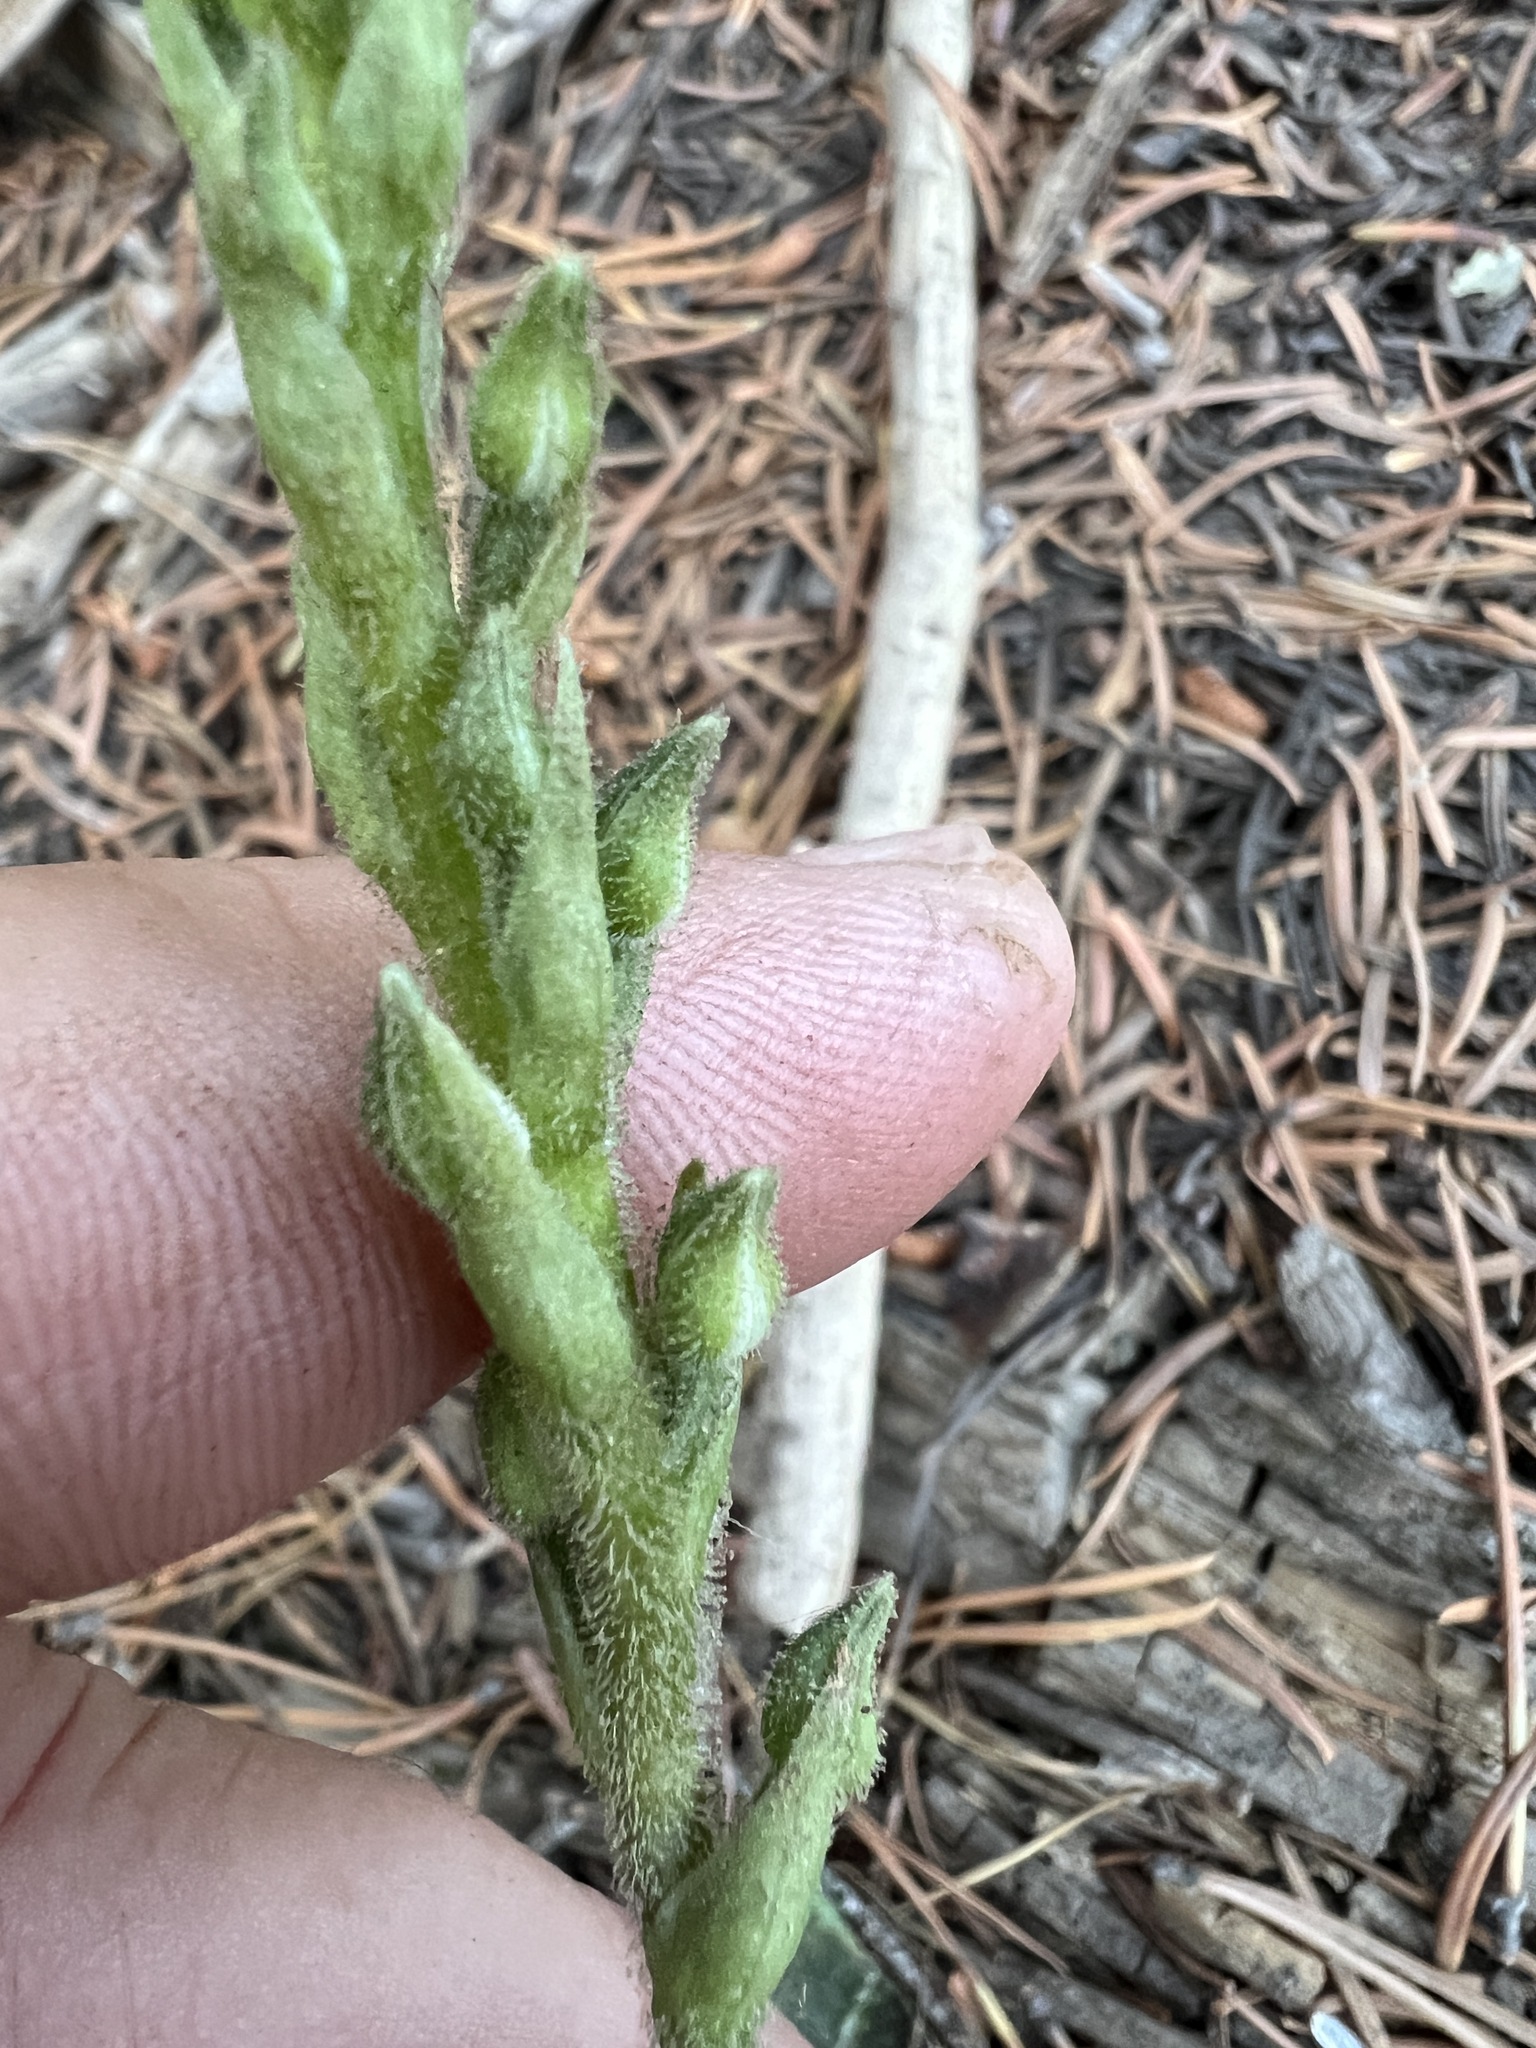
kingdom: Plantae
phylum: Tracheophyta
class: Liliopsida
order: Asparagales
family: Orchidaceae
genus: Goodyera
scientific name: Goodyera oblongifolia
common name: Giant rattlesnake-plantain
